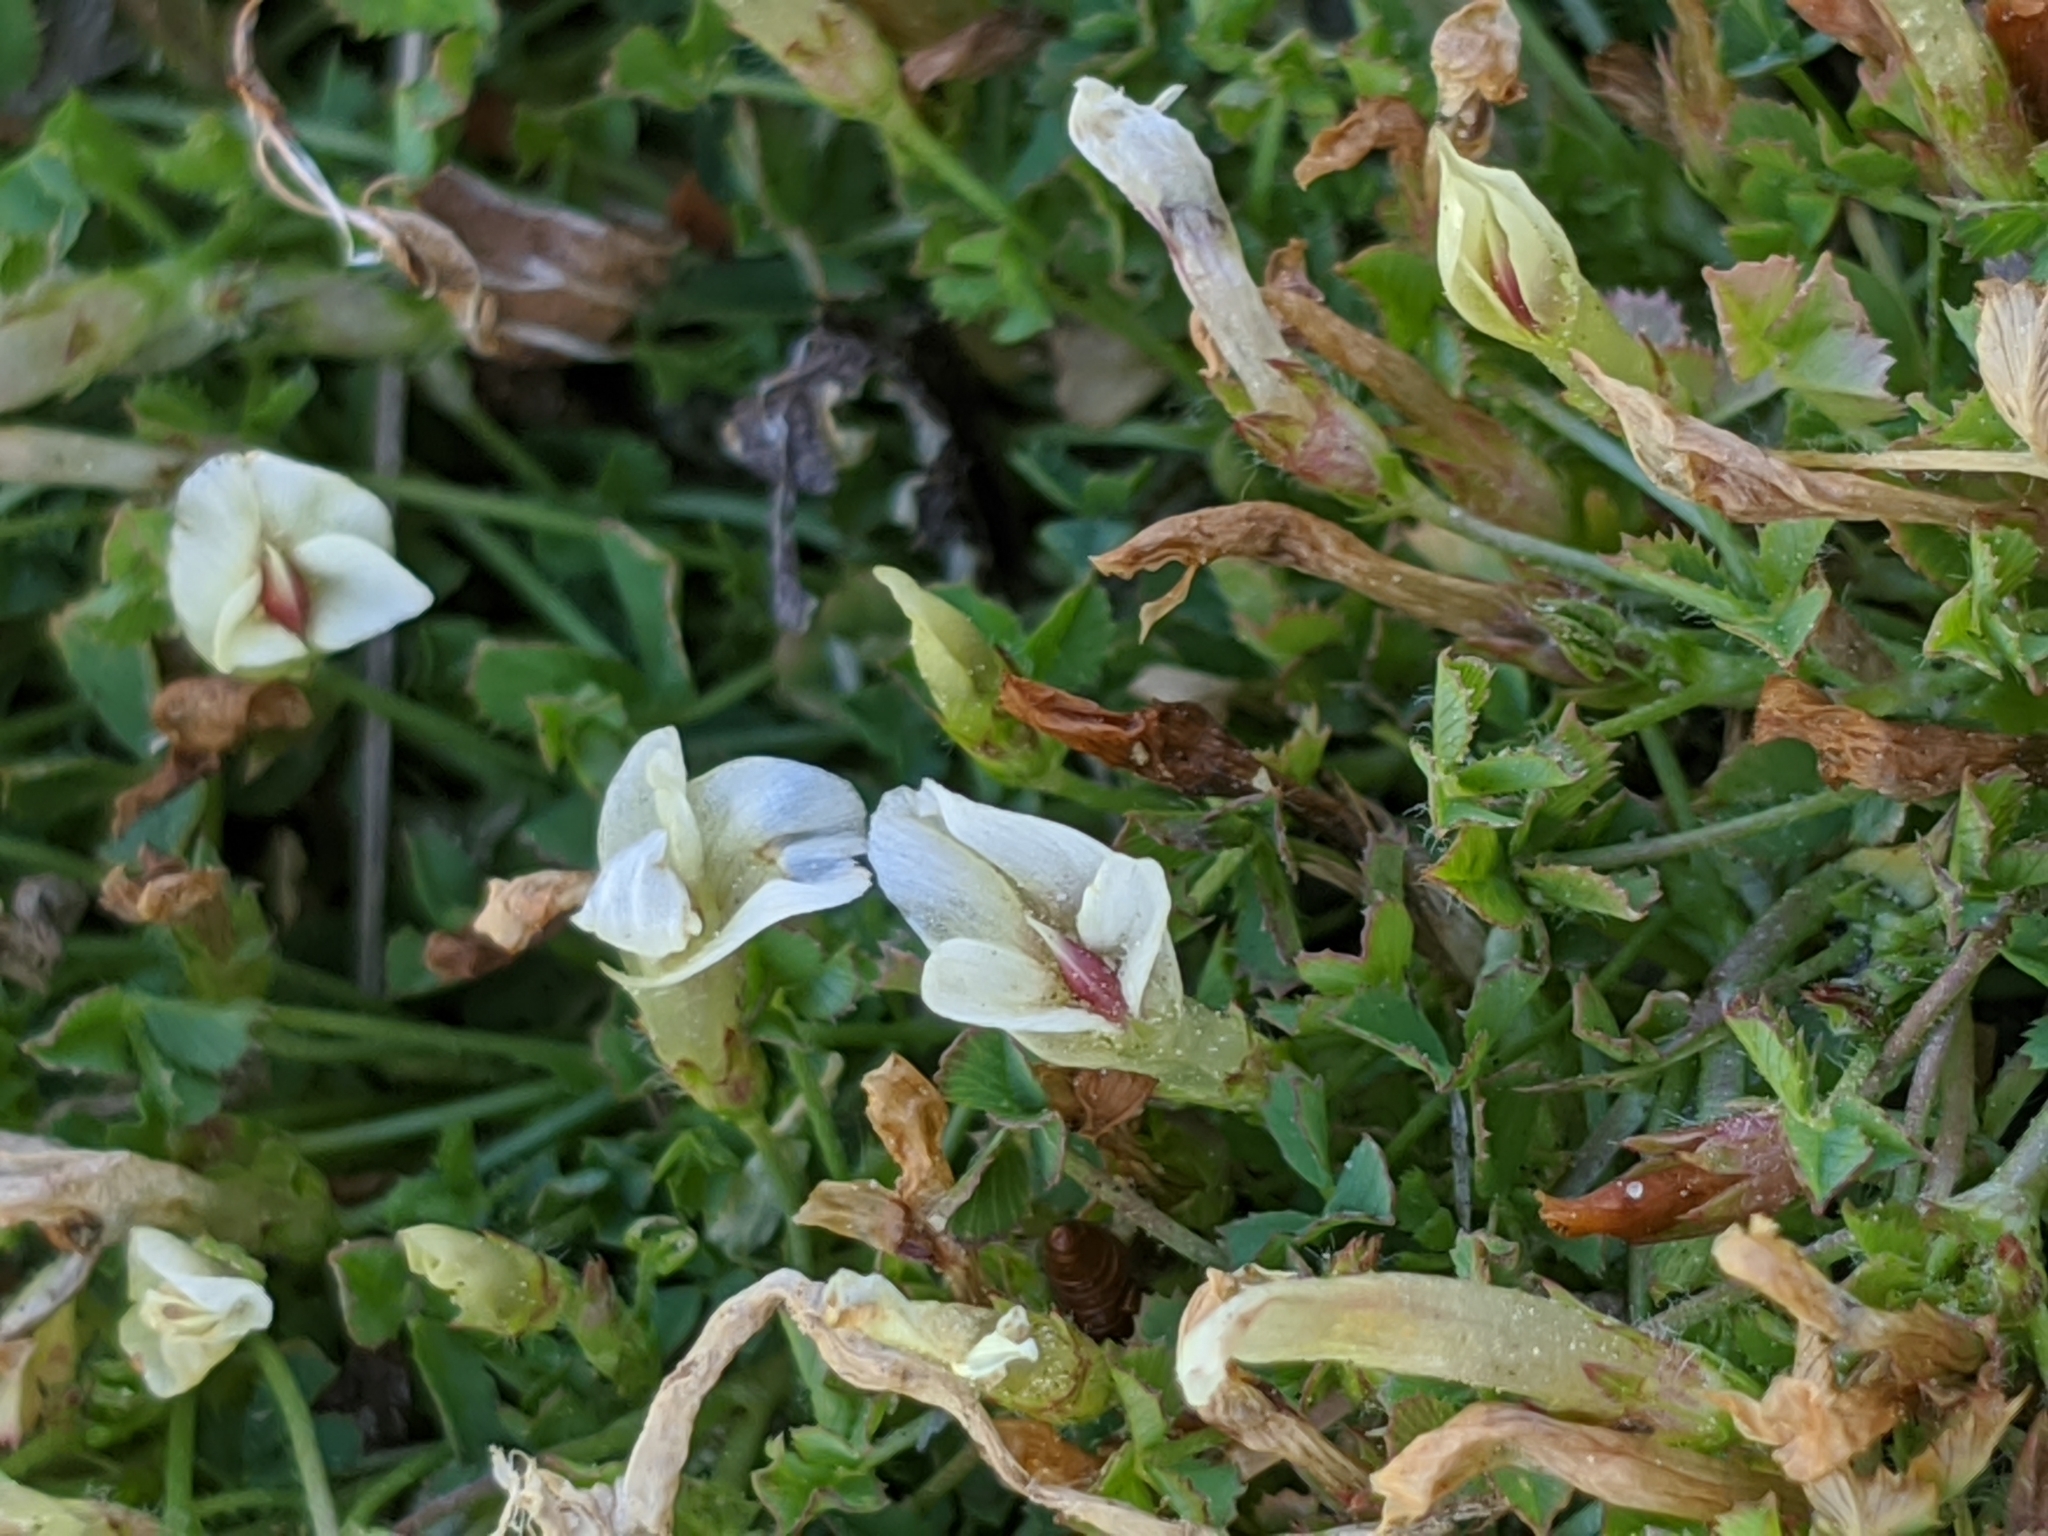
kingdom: Plantae
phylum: Tracheophyta
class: Magnoliopsida
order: Fabales
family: Fabaceae
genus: Trifolium
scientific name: Trifolium monanthum
